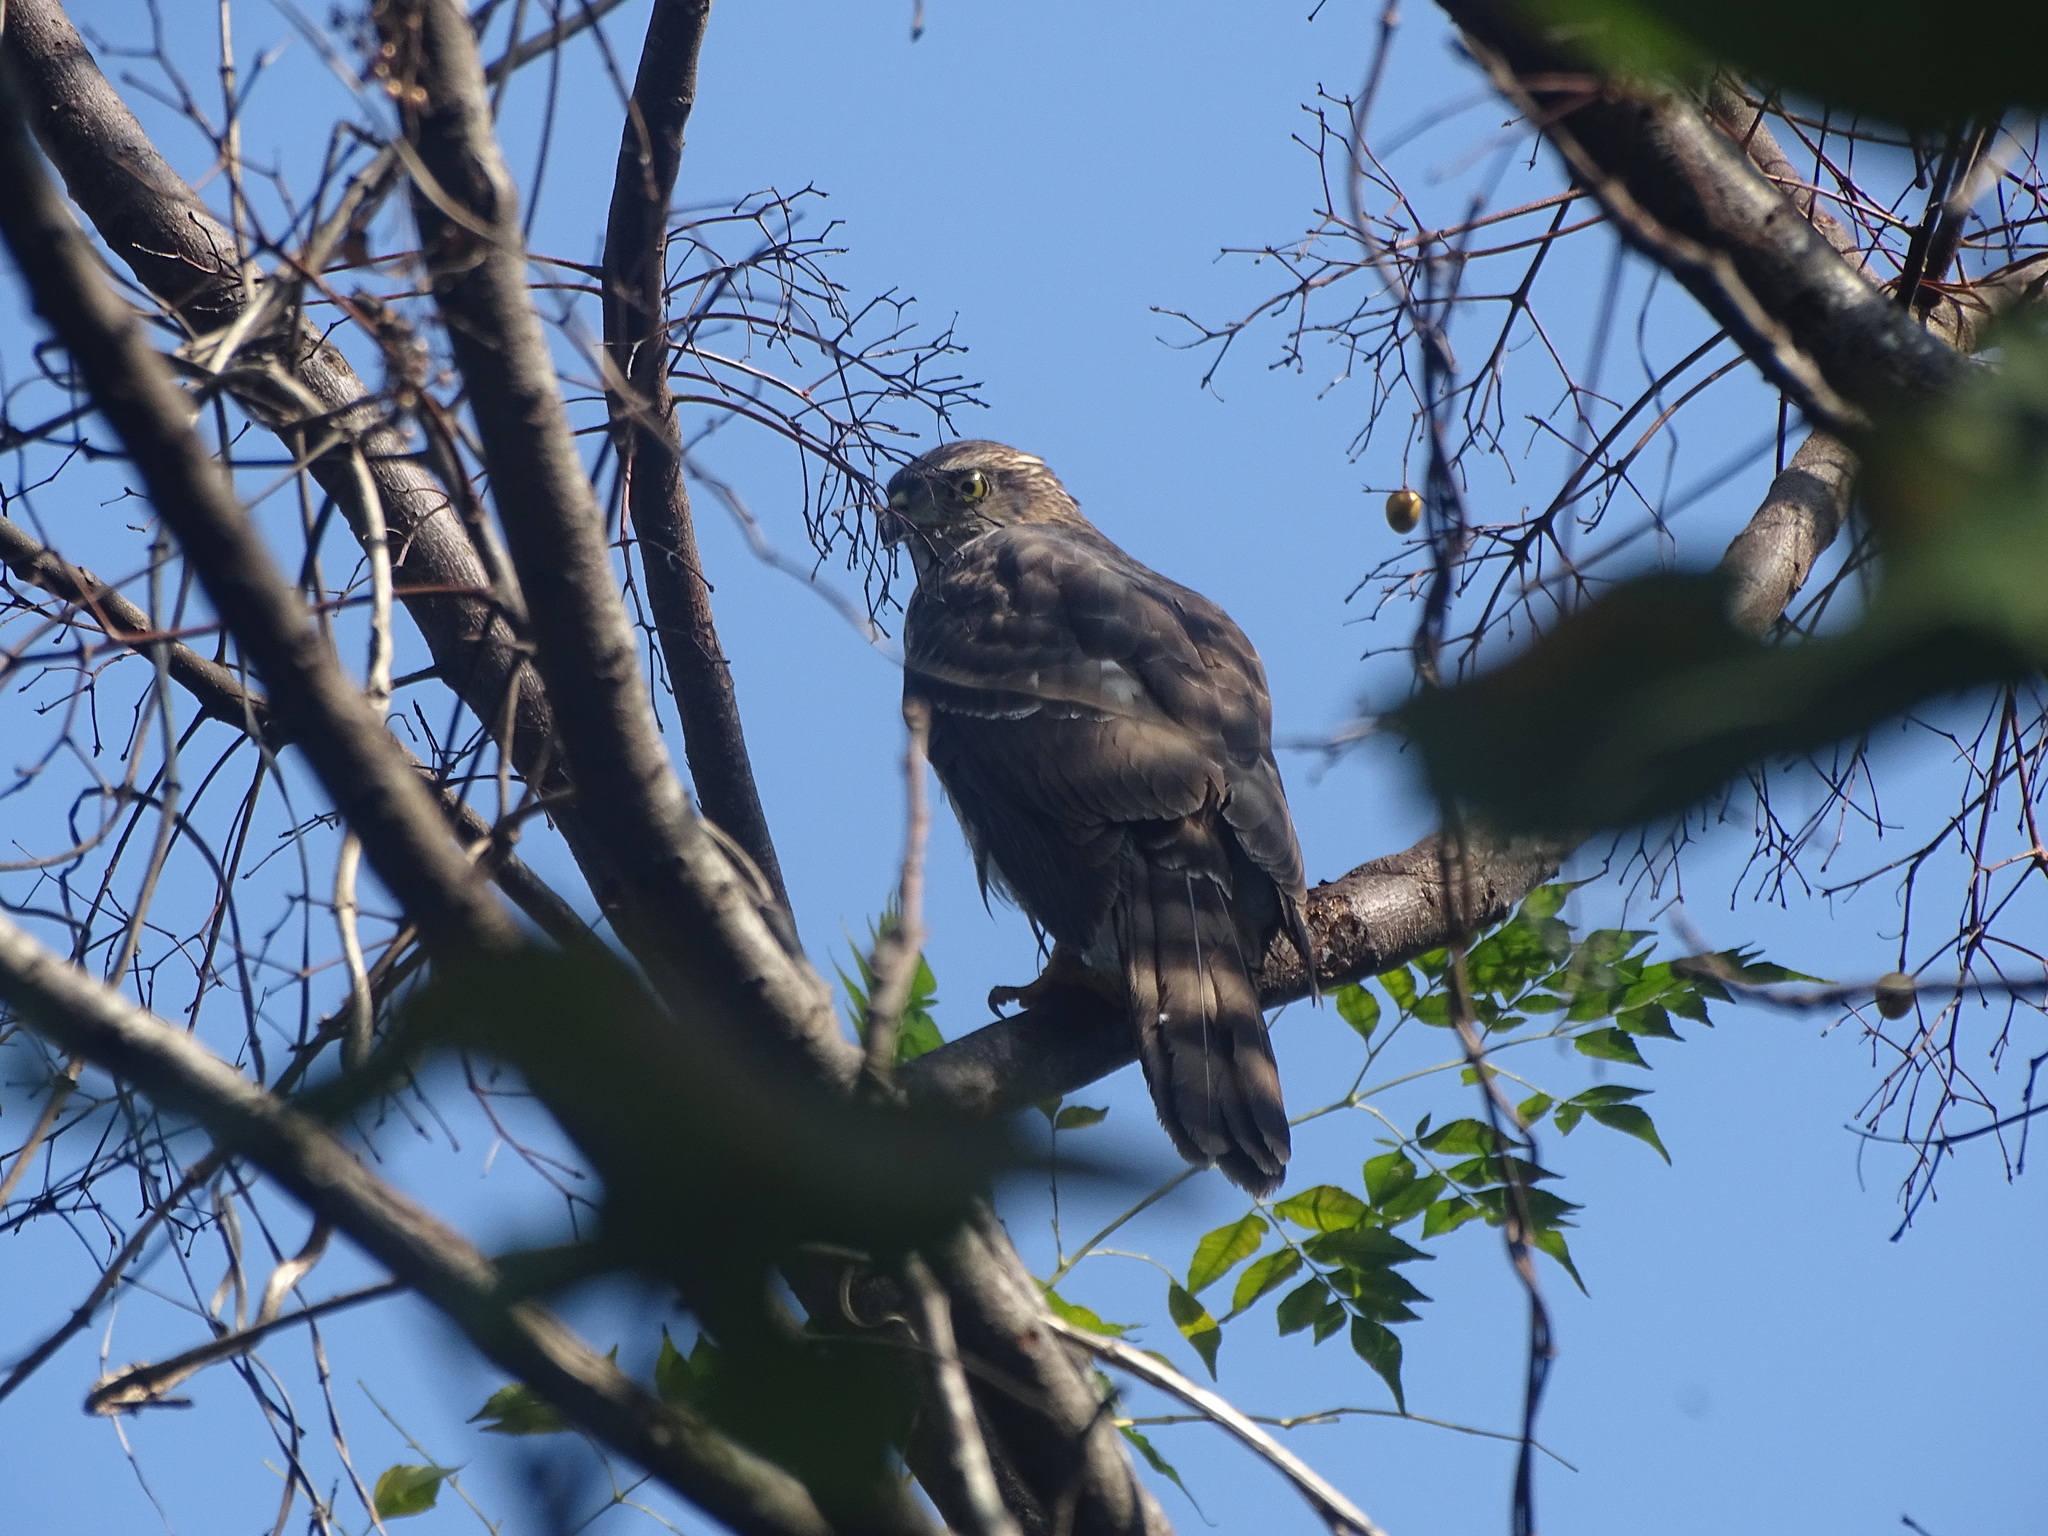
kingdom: Animalia
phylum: Chordata
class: Aves
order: Accipitriformes
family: Accipitridae
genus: Accipiter
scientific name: Accipiter trivirgatus
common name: Crested goshawk
